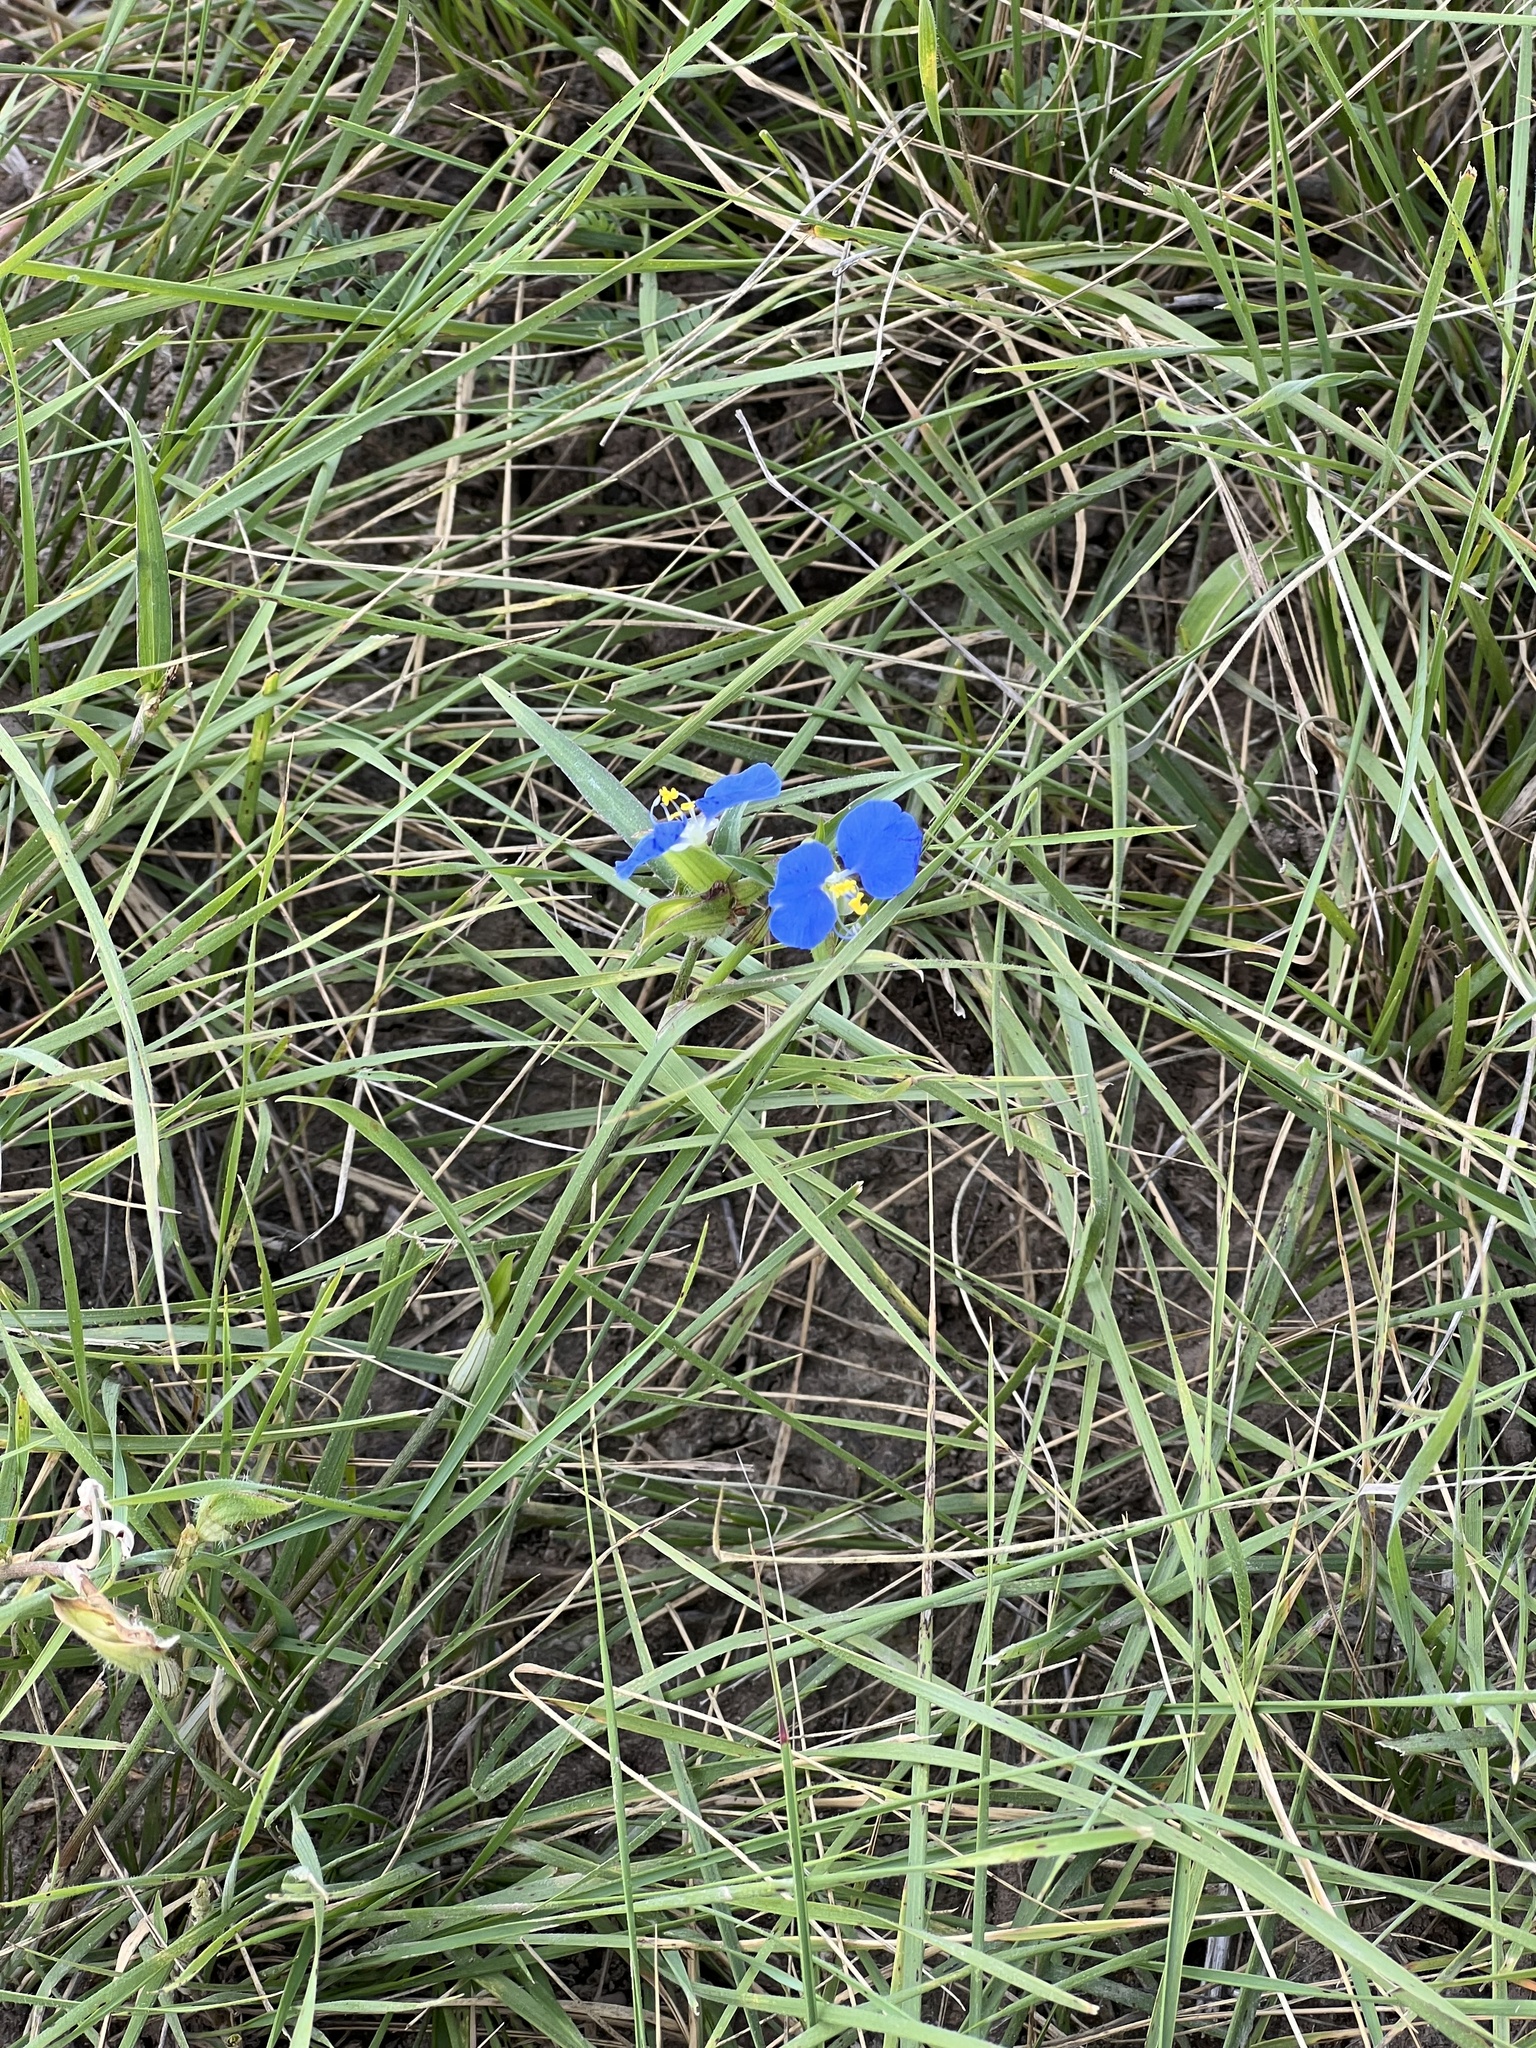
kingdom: Plantae
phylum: Tracheophyta
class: Liliopsida
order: Commelinales
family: Commelinaceae
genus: Commelina
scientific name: Commelina erecta
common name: Blousel blommetjie
